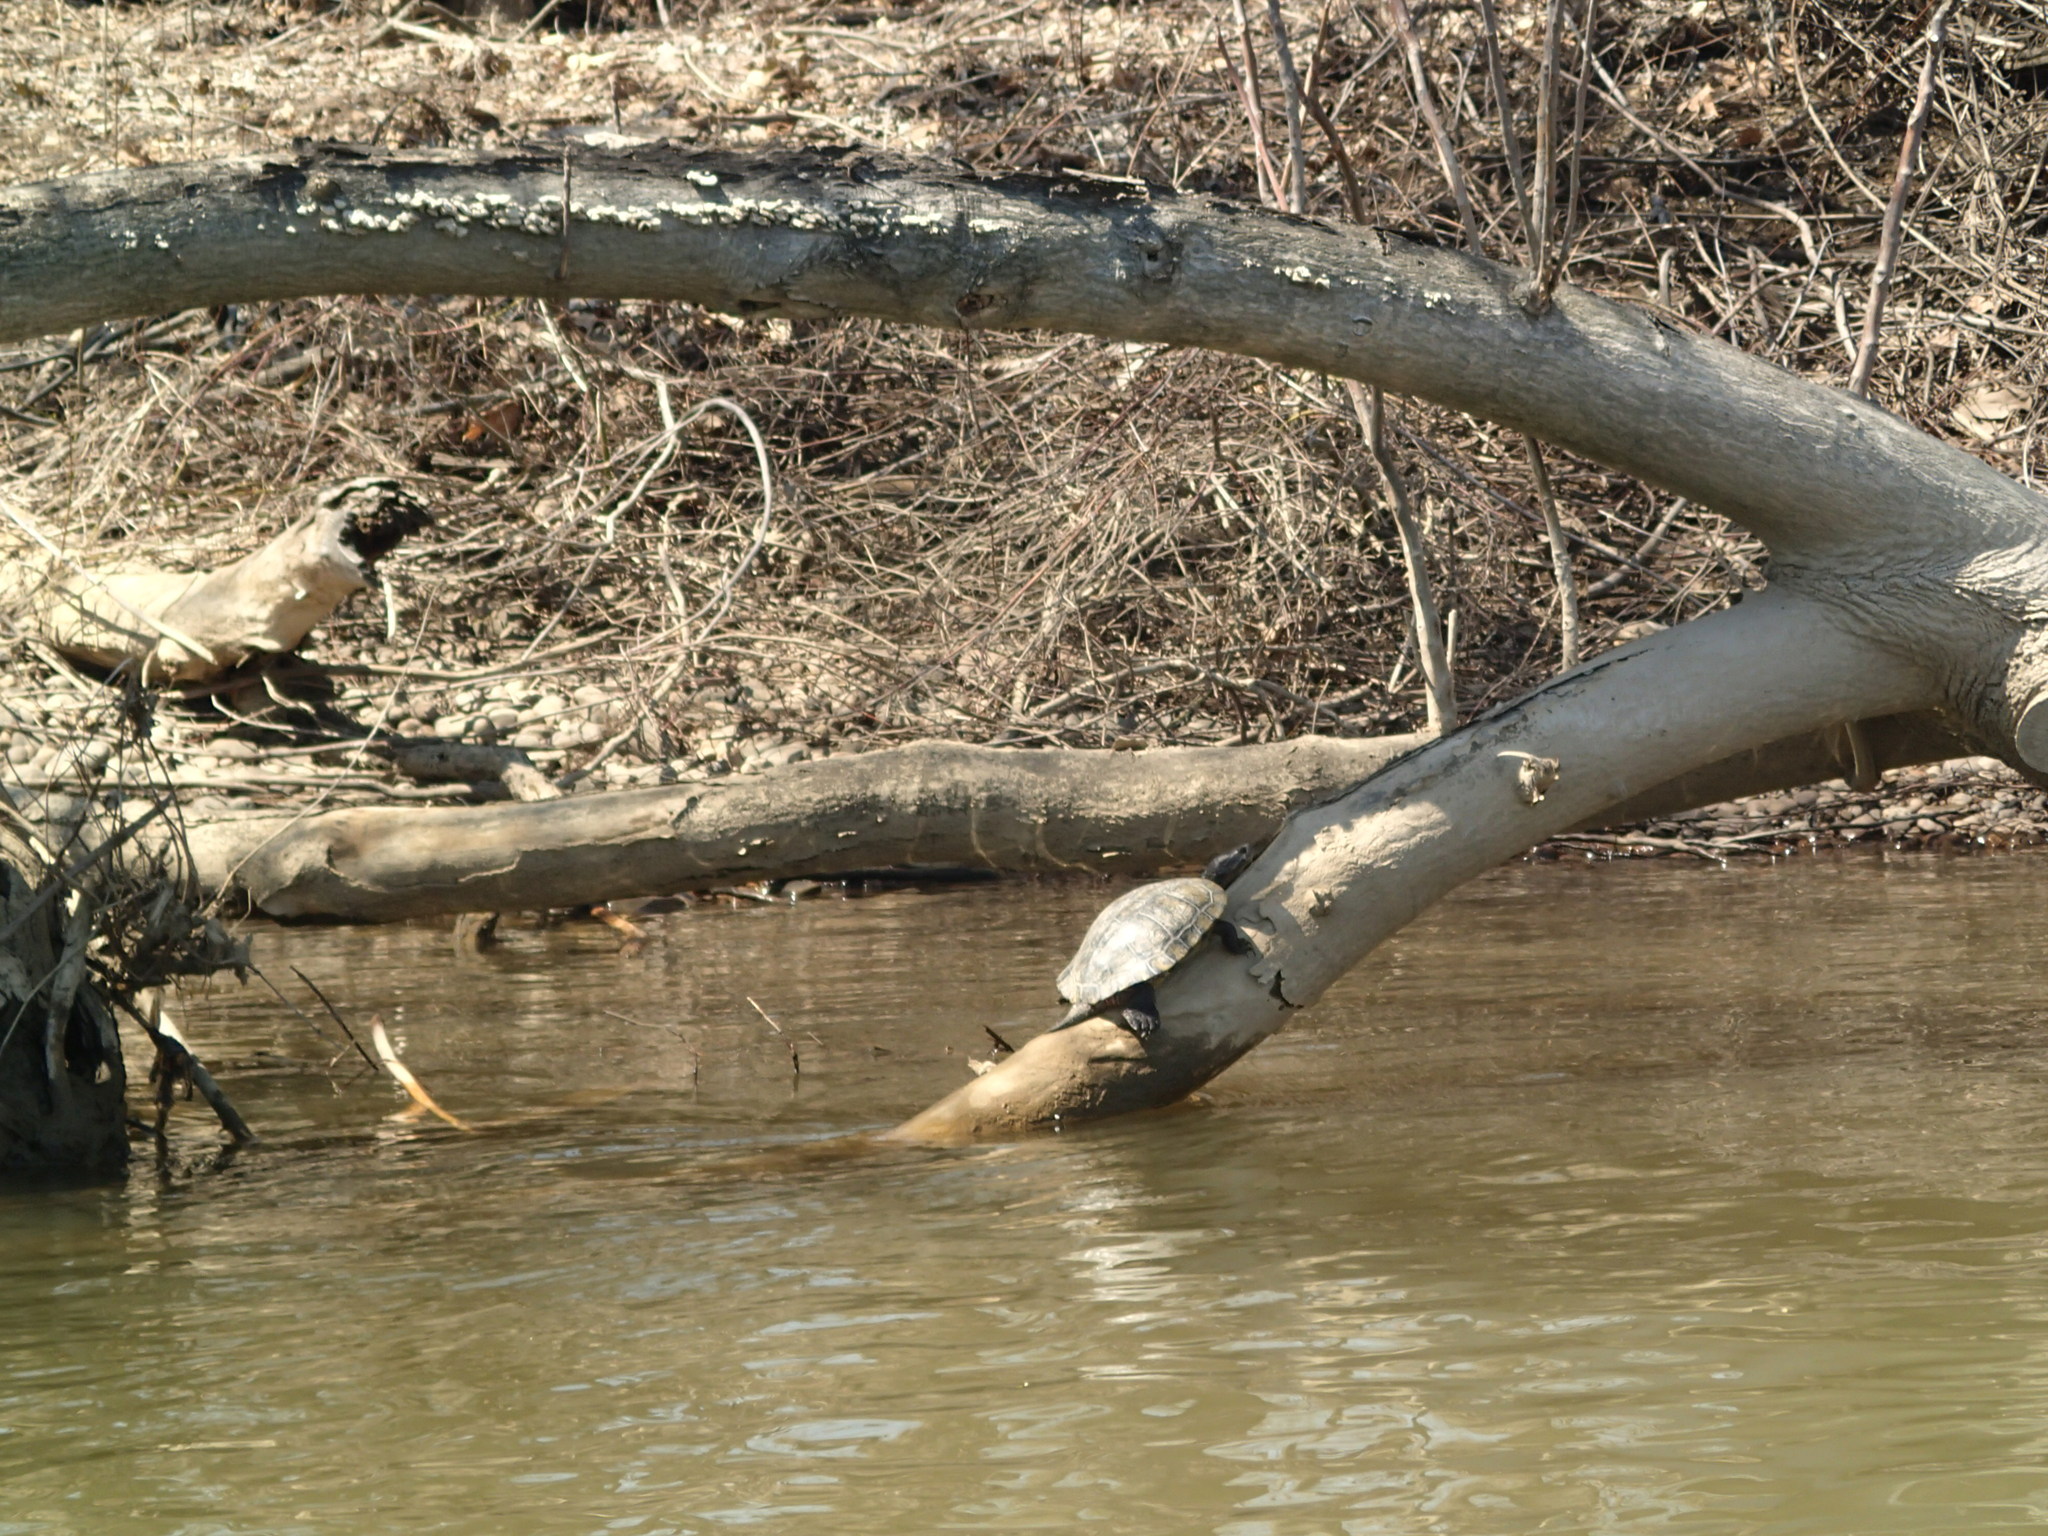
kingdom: Animalia
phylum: Chordata
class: Testudines
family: Emydidae
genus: Trachemys
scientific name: Trachemys scripta
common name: Slider
